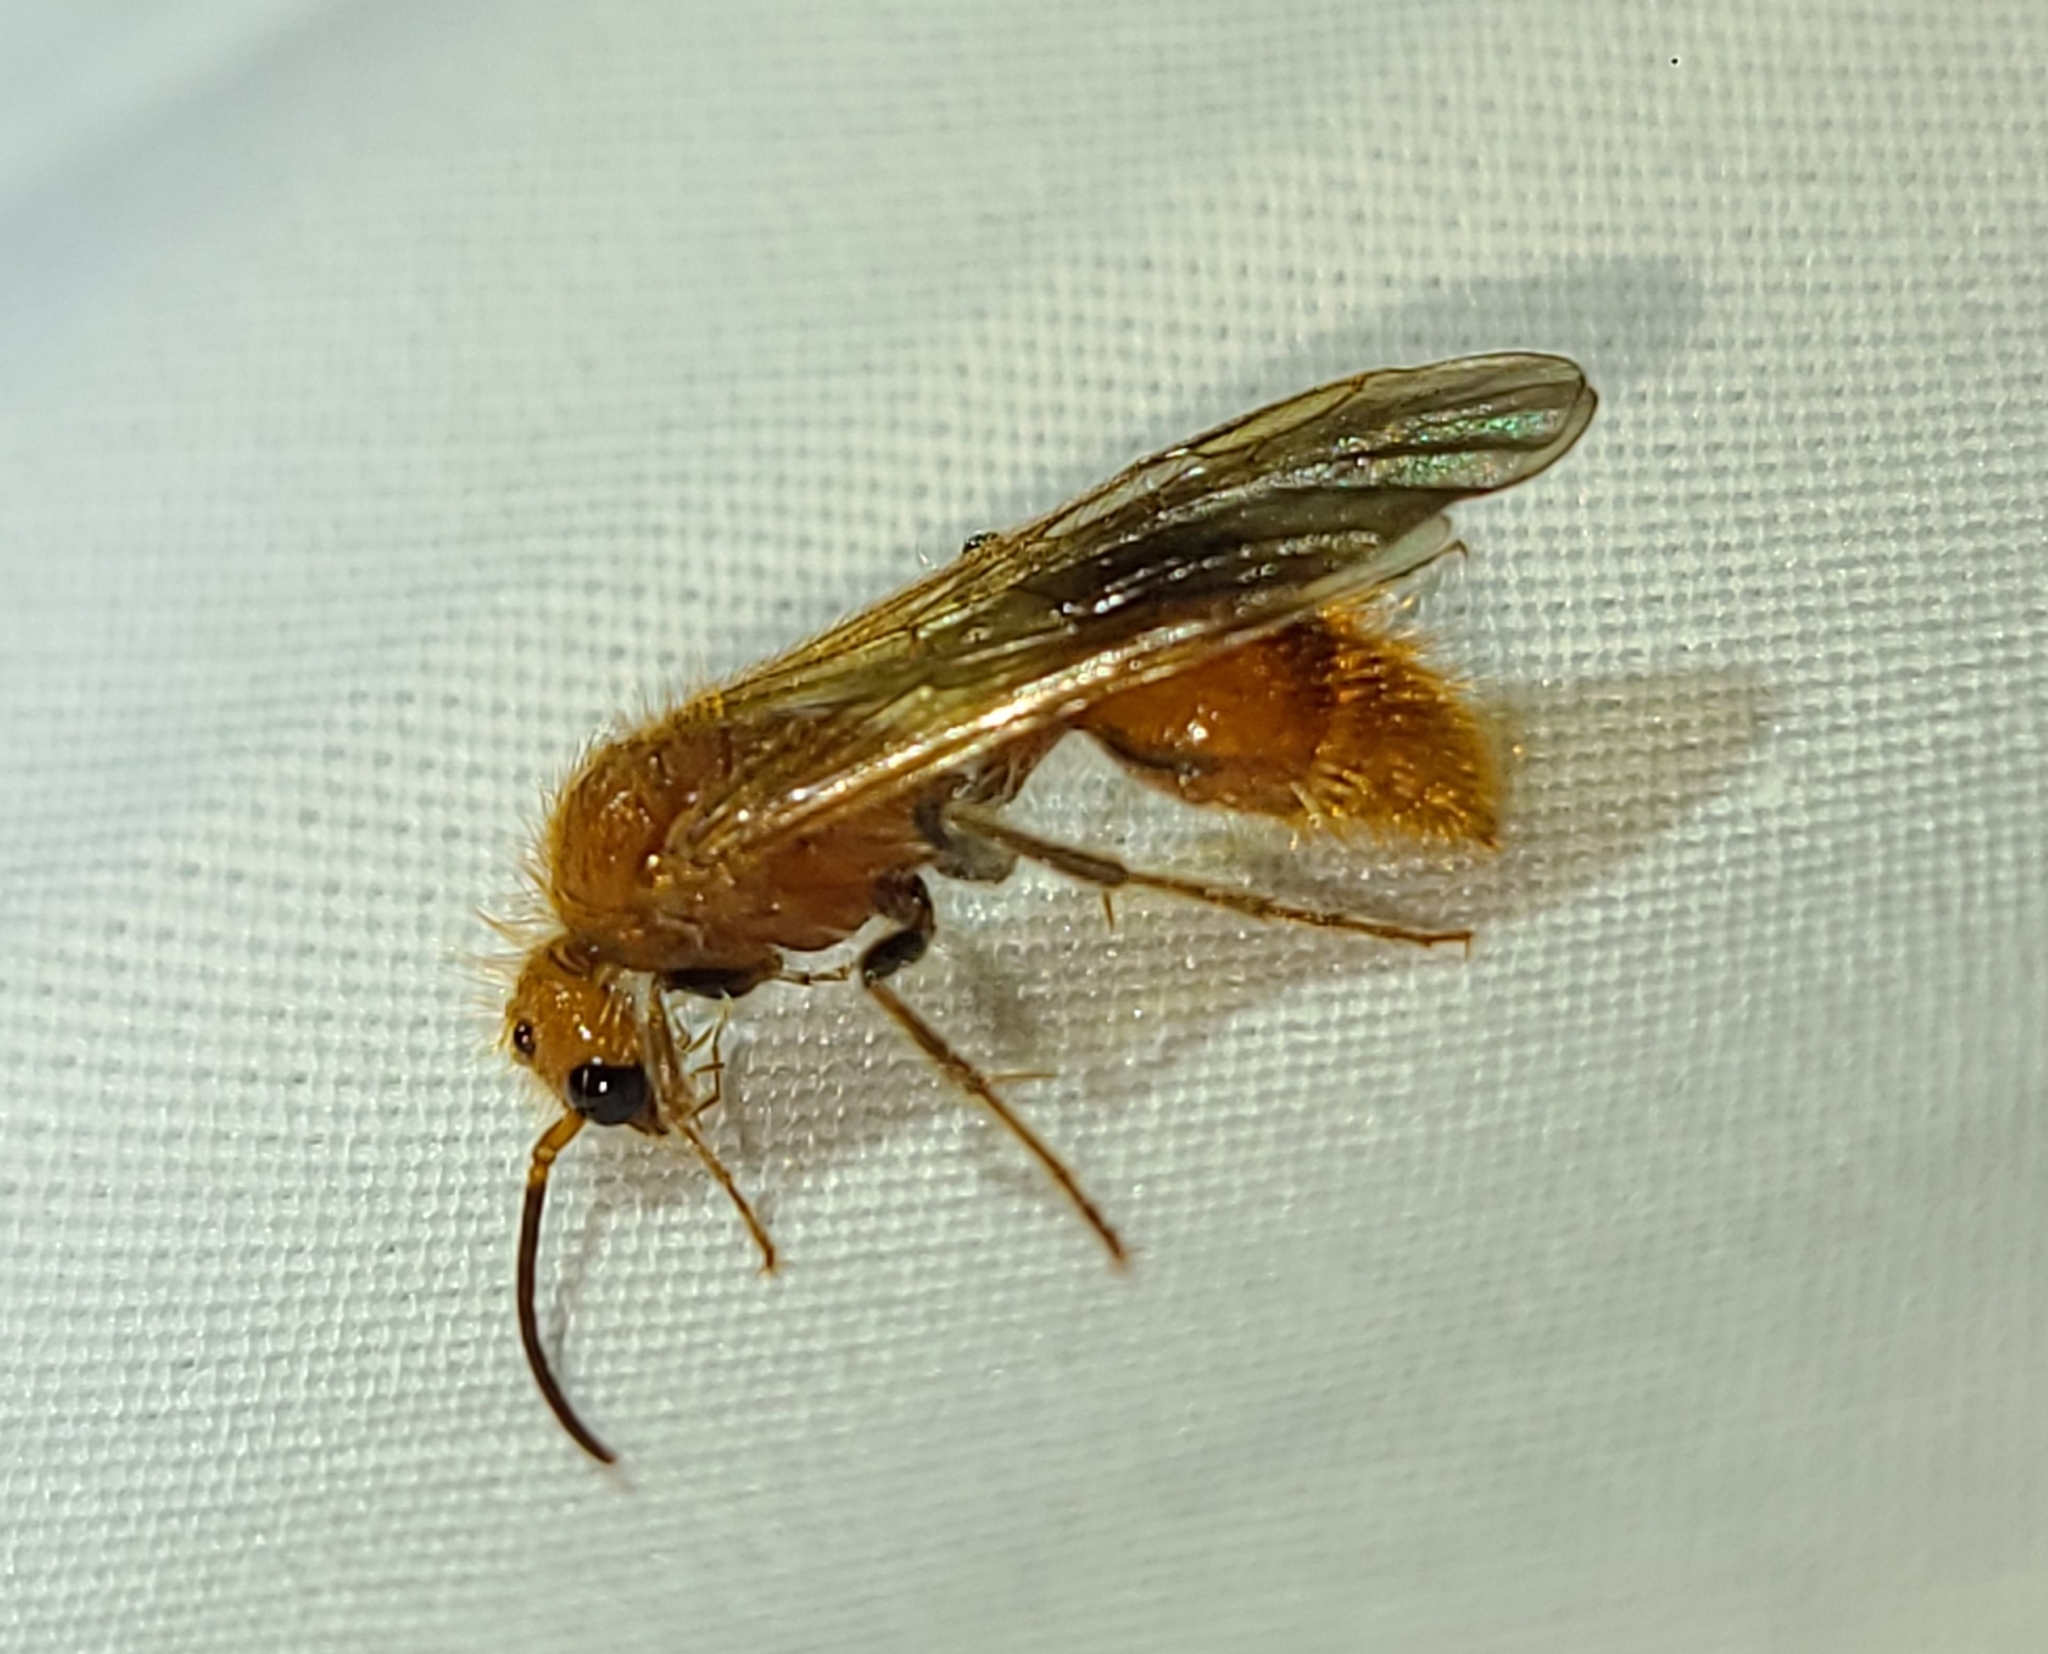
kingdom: Animalia
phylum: Arthropoda
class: Insecta
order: Hymenoptera
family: Mutillidae
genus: Sphaeropthalma
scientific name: Sphaeropthalma unicolor
